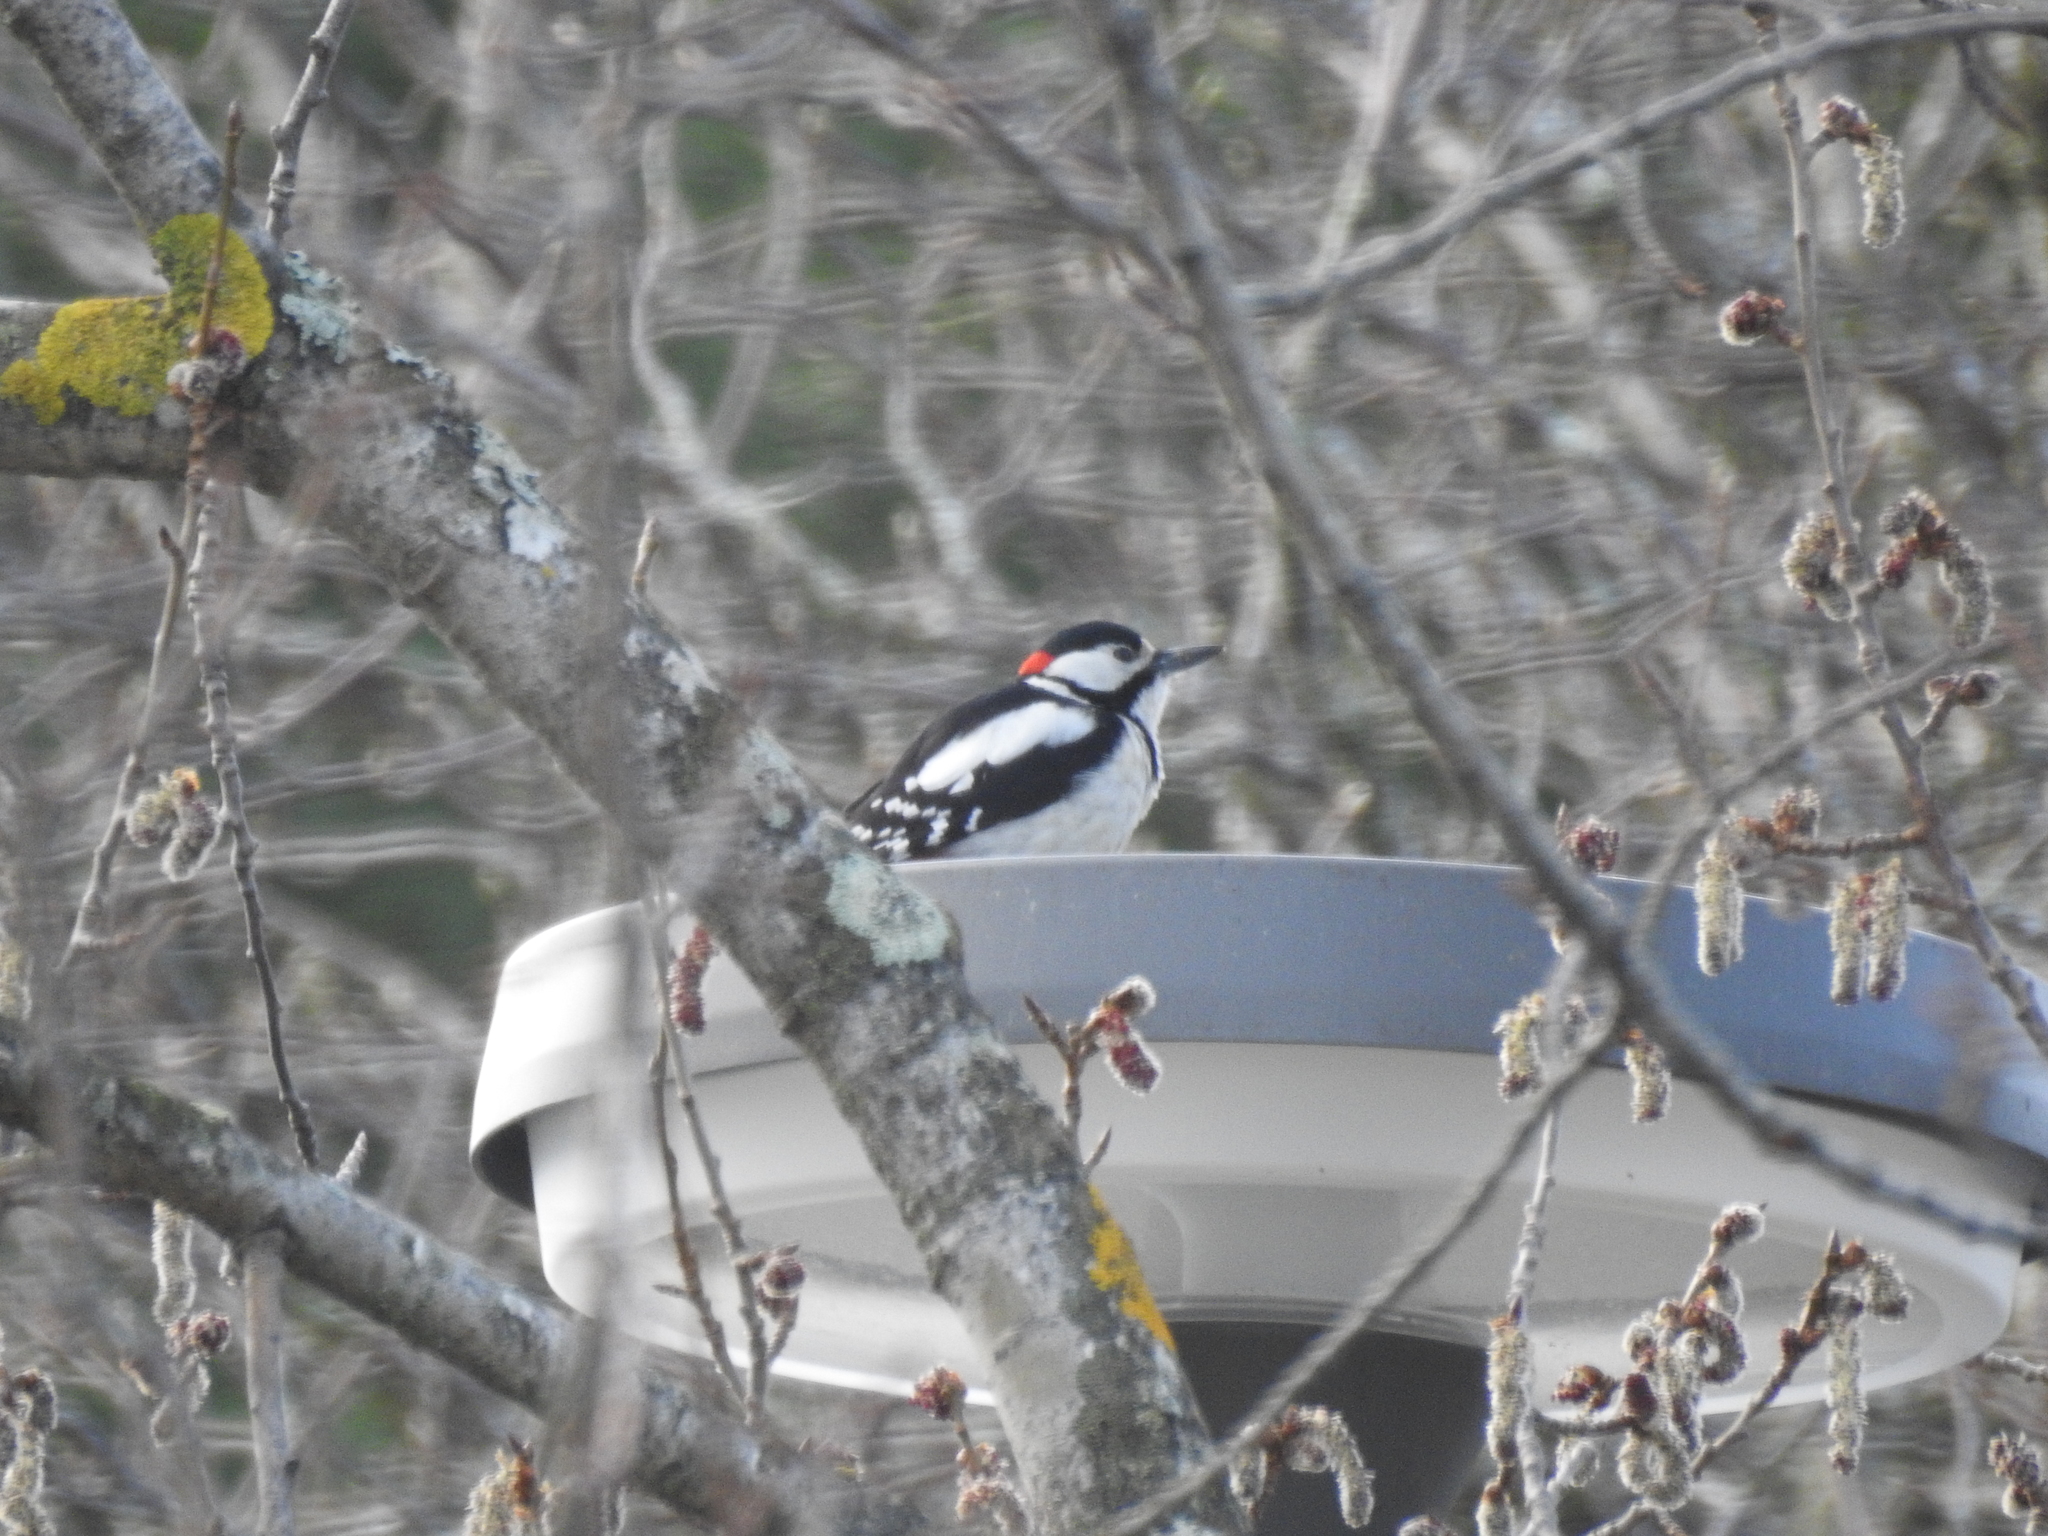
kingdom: Animalia
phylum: Chordata
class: Aves
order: Piciformes
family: Picidae
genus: Dendrocopos
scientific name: Dendrocopos major
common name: Great spotted woodpecker
